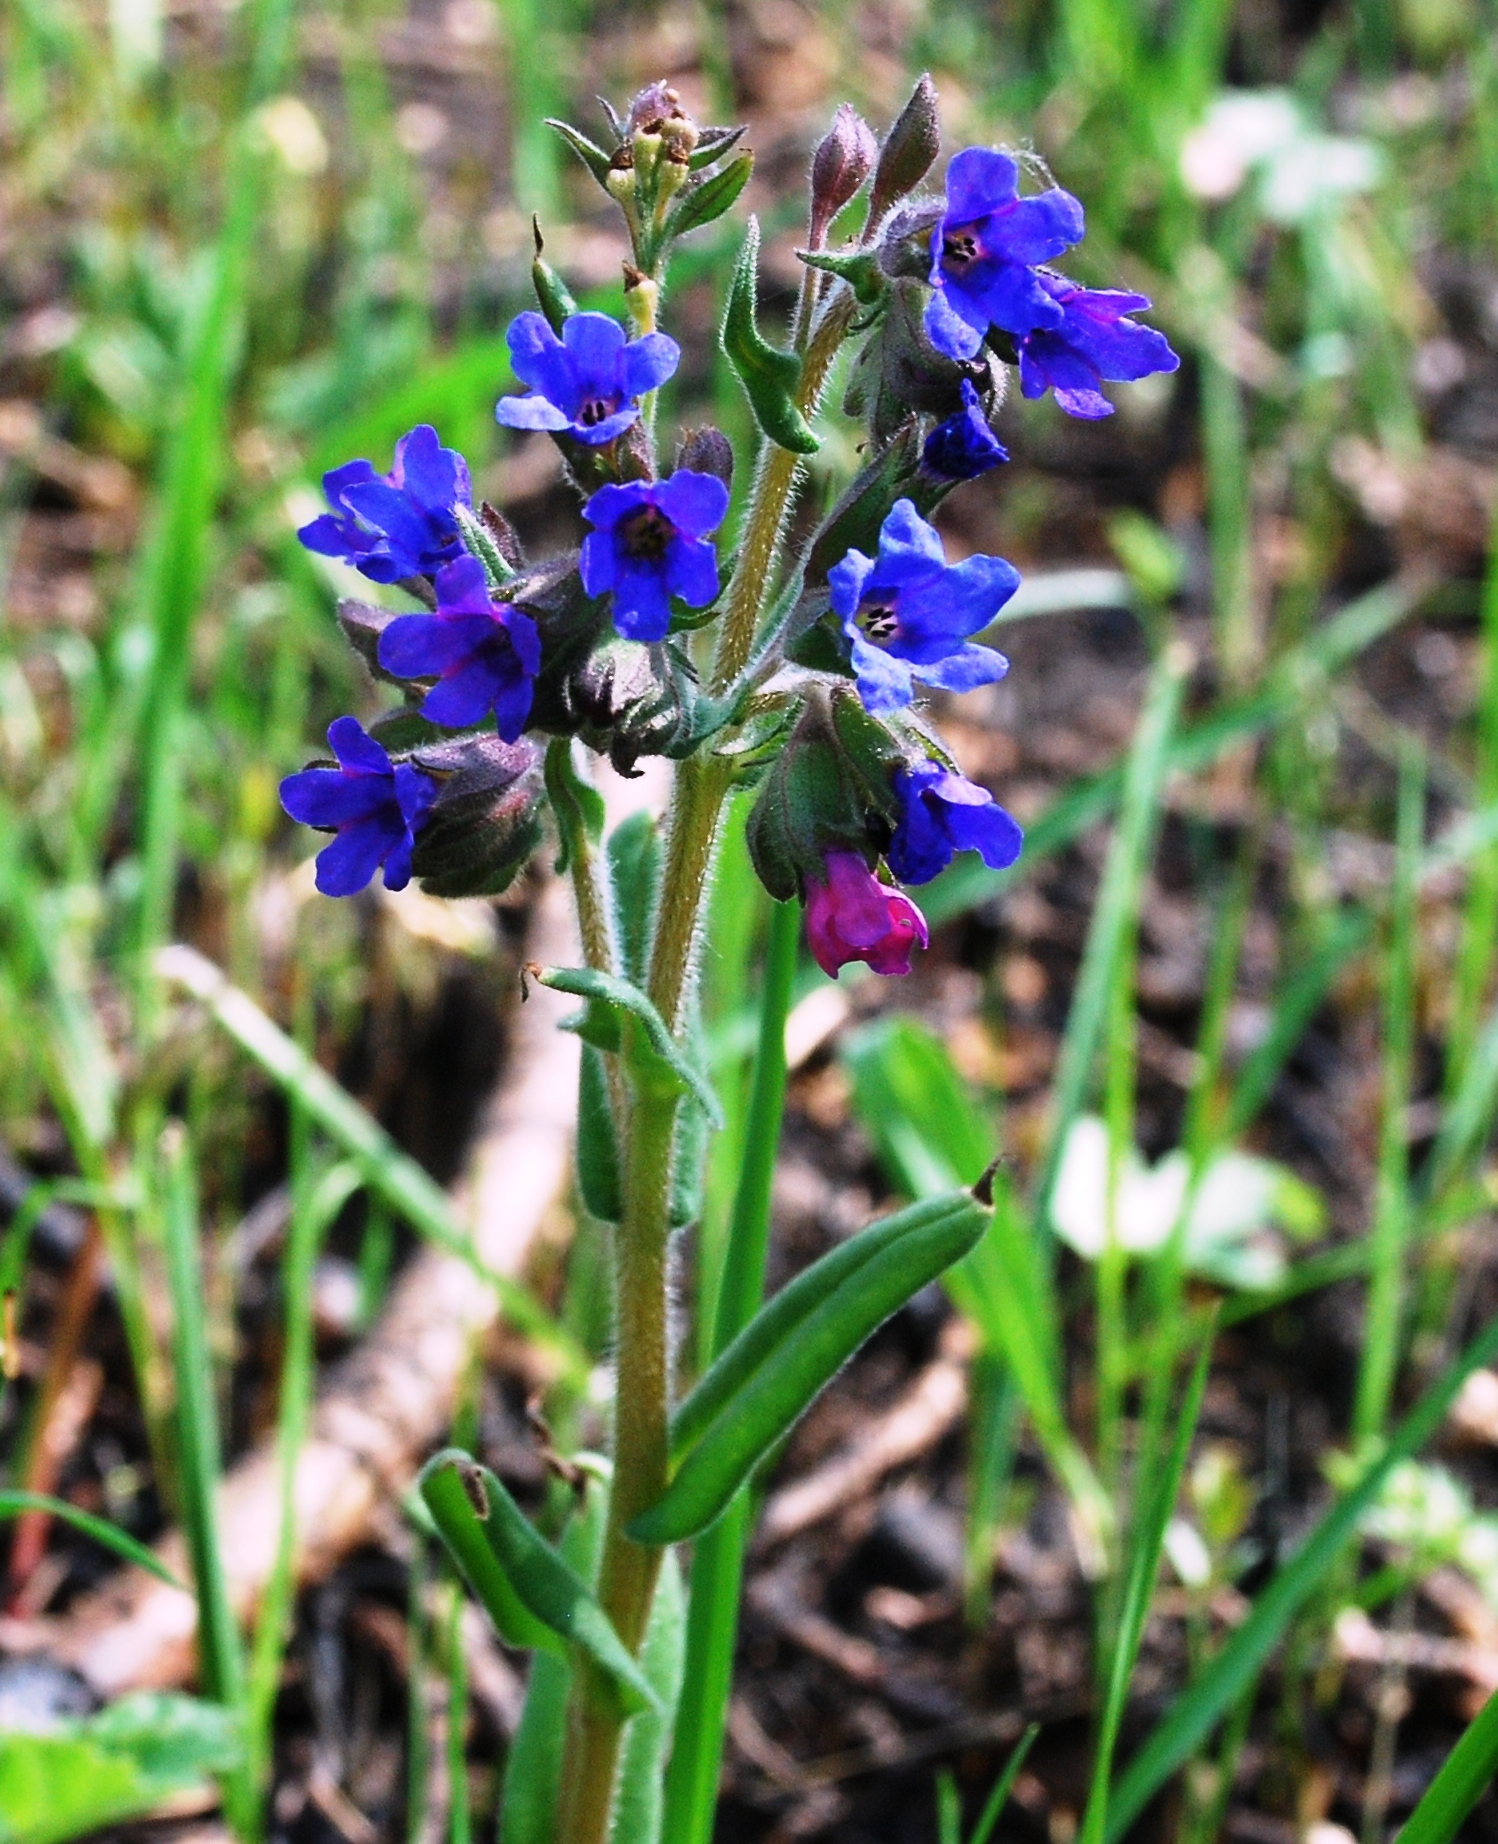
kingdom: Plantae
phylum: Tracheophyta
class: Magnoliopsida
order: Boraginales
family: Boraginaceae
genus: Pulmonaria
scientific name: Pulmonaria angustifolia
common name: Blue cowslip
